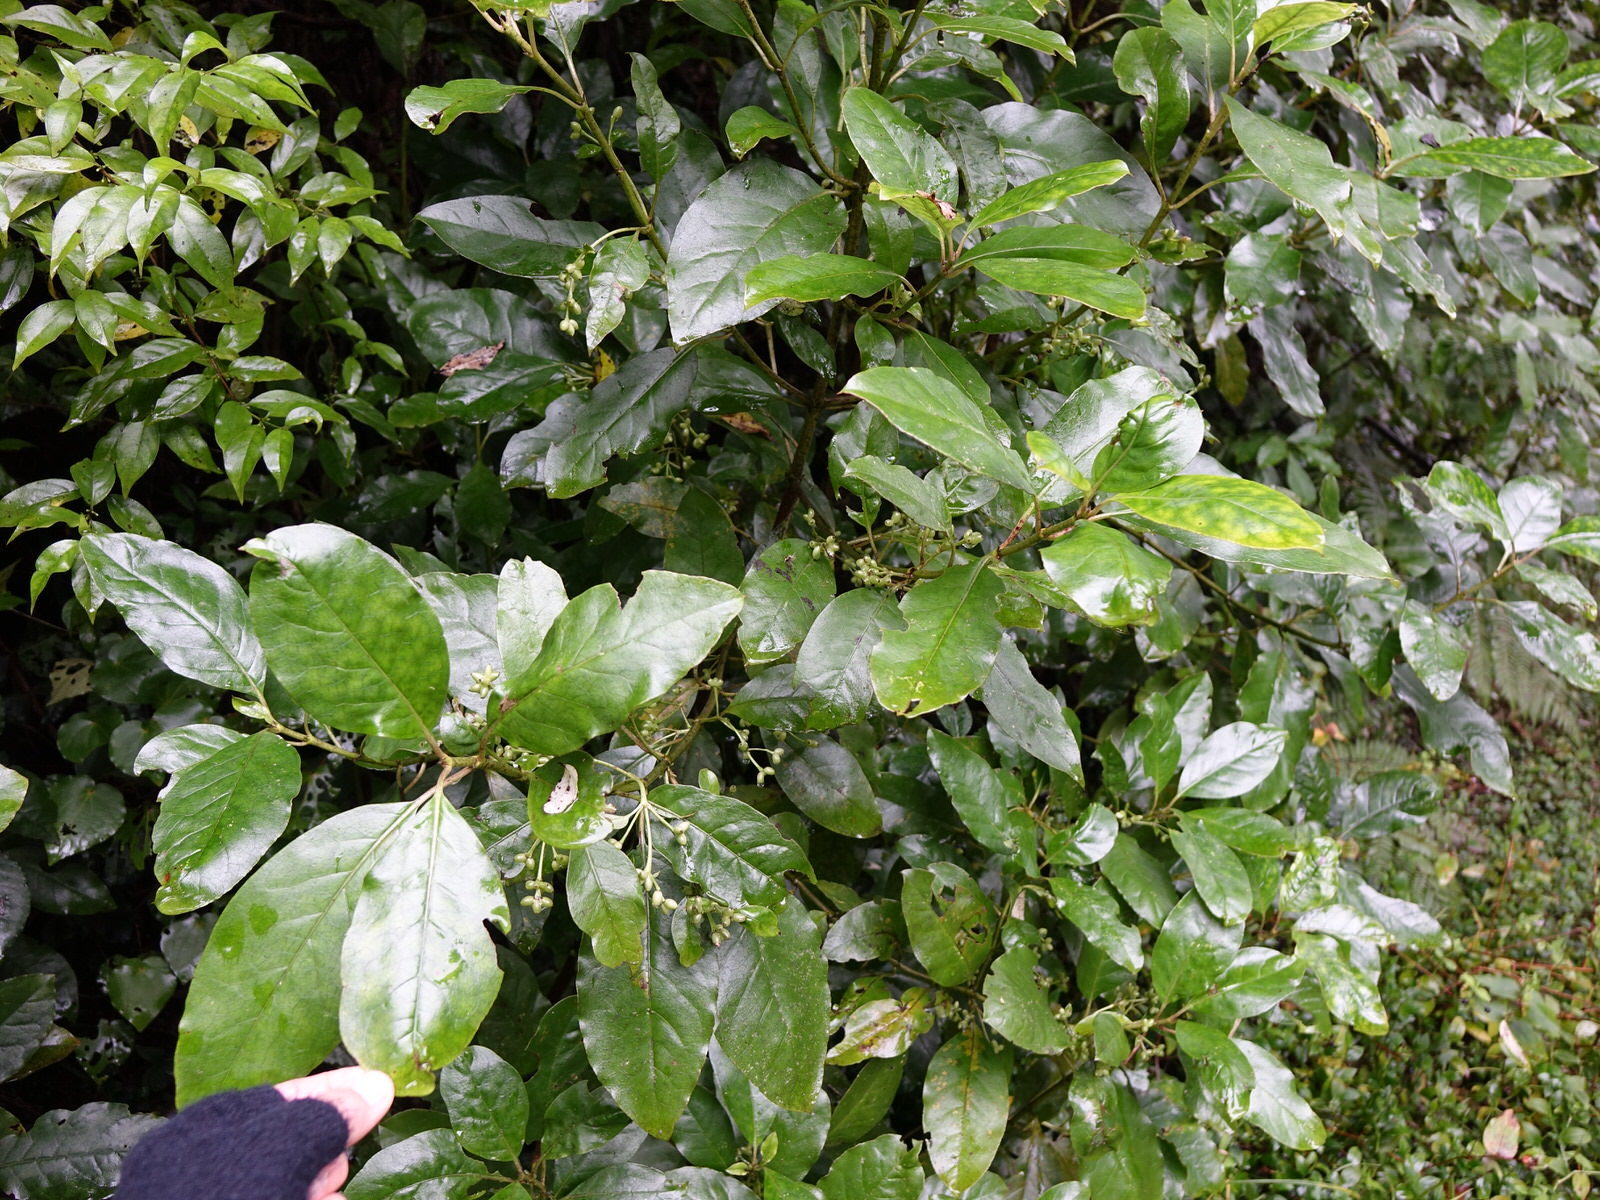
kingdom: Plantae
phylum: Tracheophyta
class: Magnoliopsida
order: Gentianales
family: Rubiaceae
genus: Coprosma
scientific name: Coprosma autumnalis
